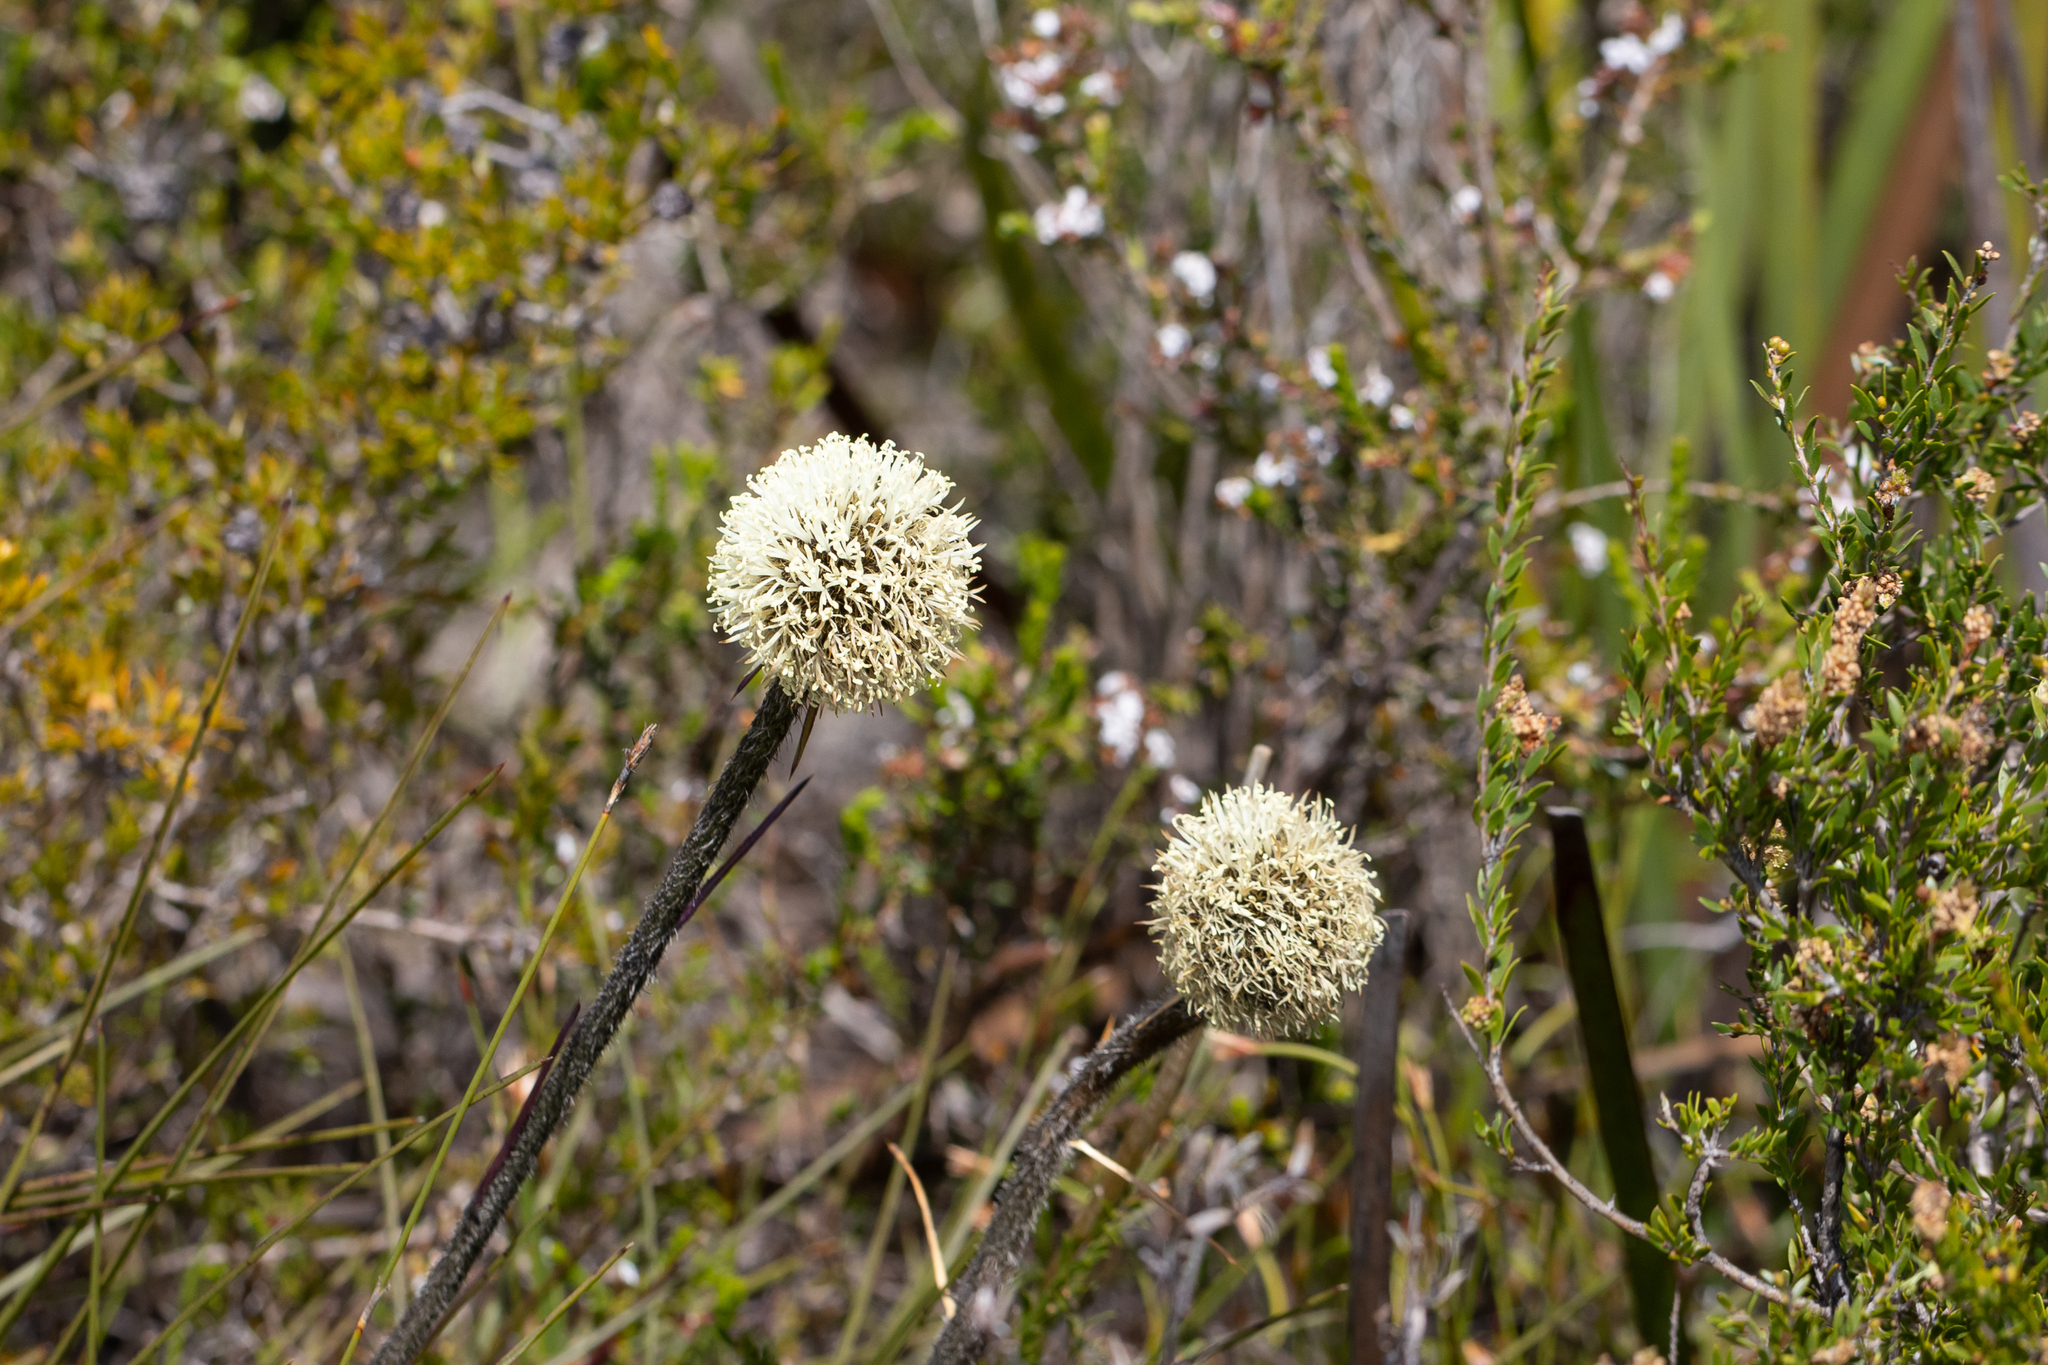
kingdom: Plantae
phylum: Tracheophyta
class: Liliopsida
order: Arecales
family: Dasypogonaceae
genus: Dasypogon
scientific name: Dasypogon bromeliifolius
